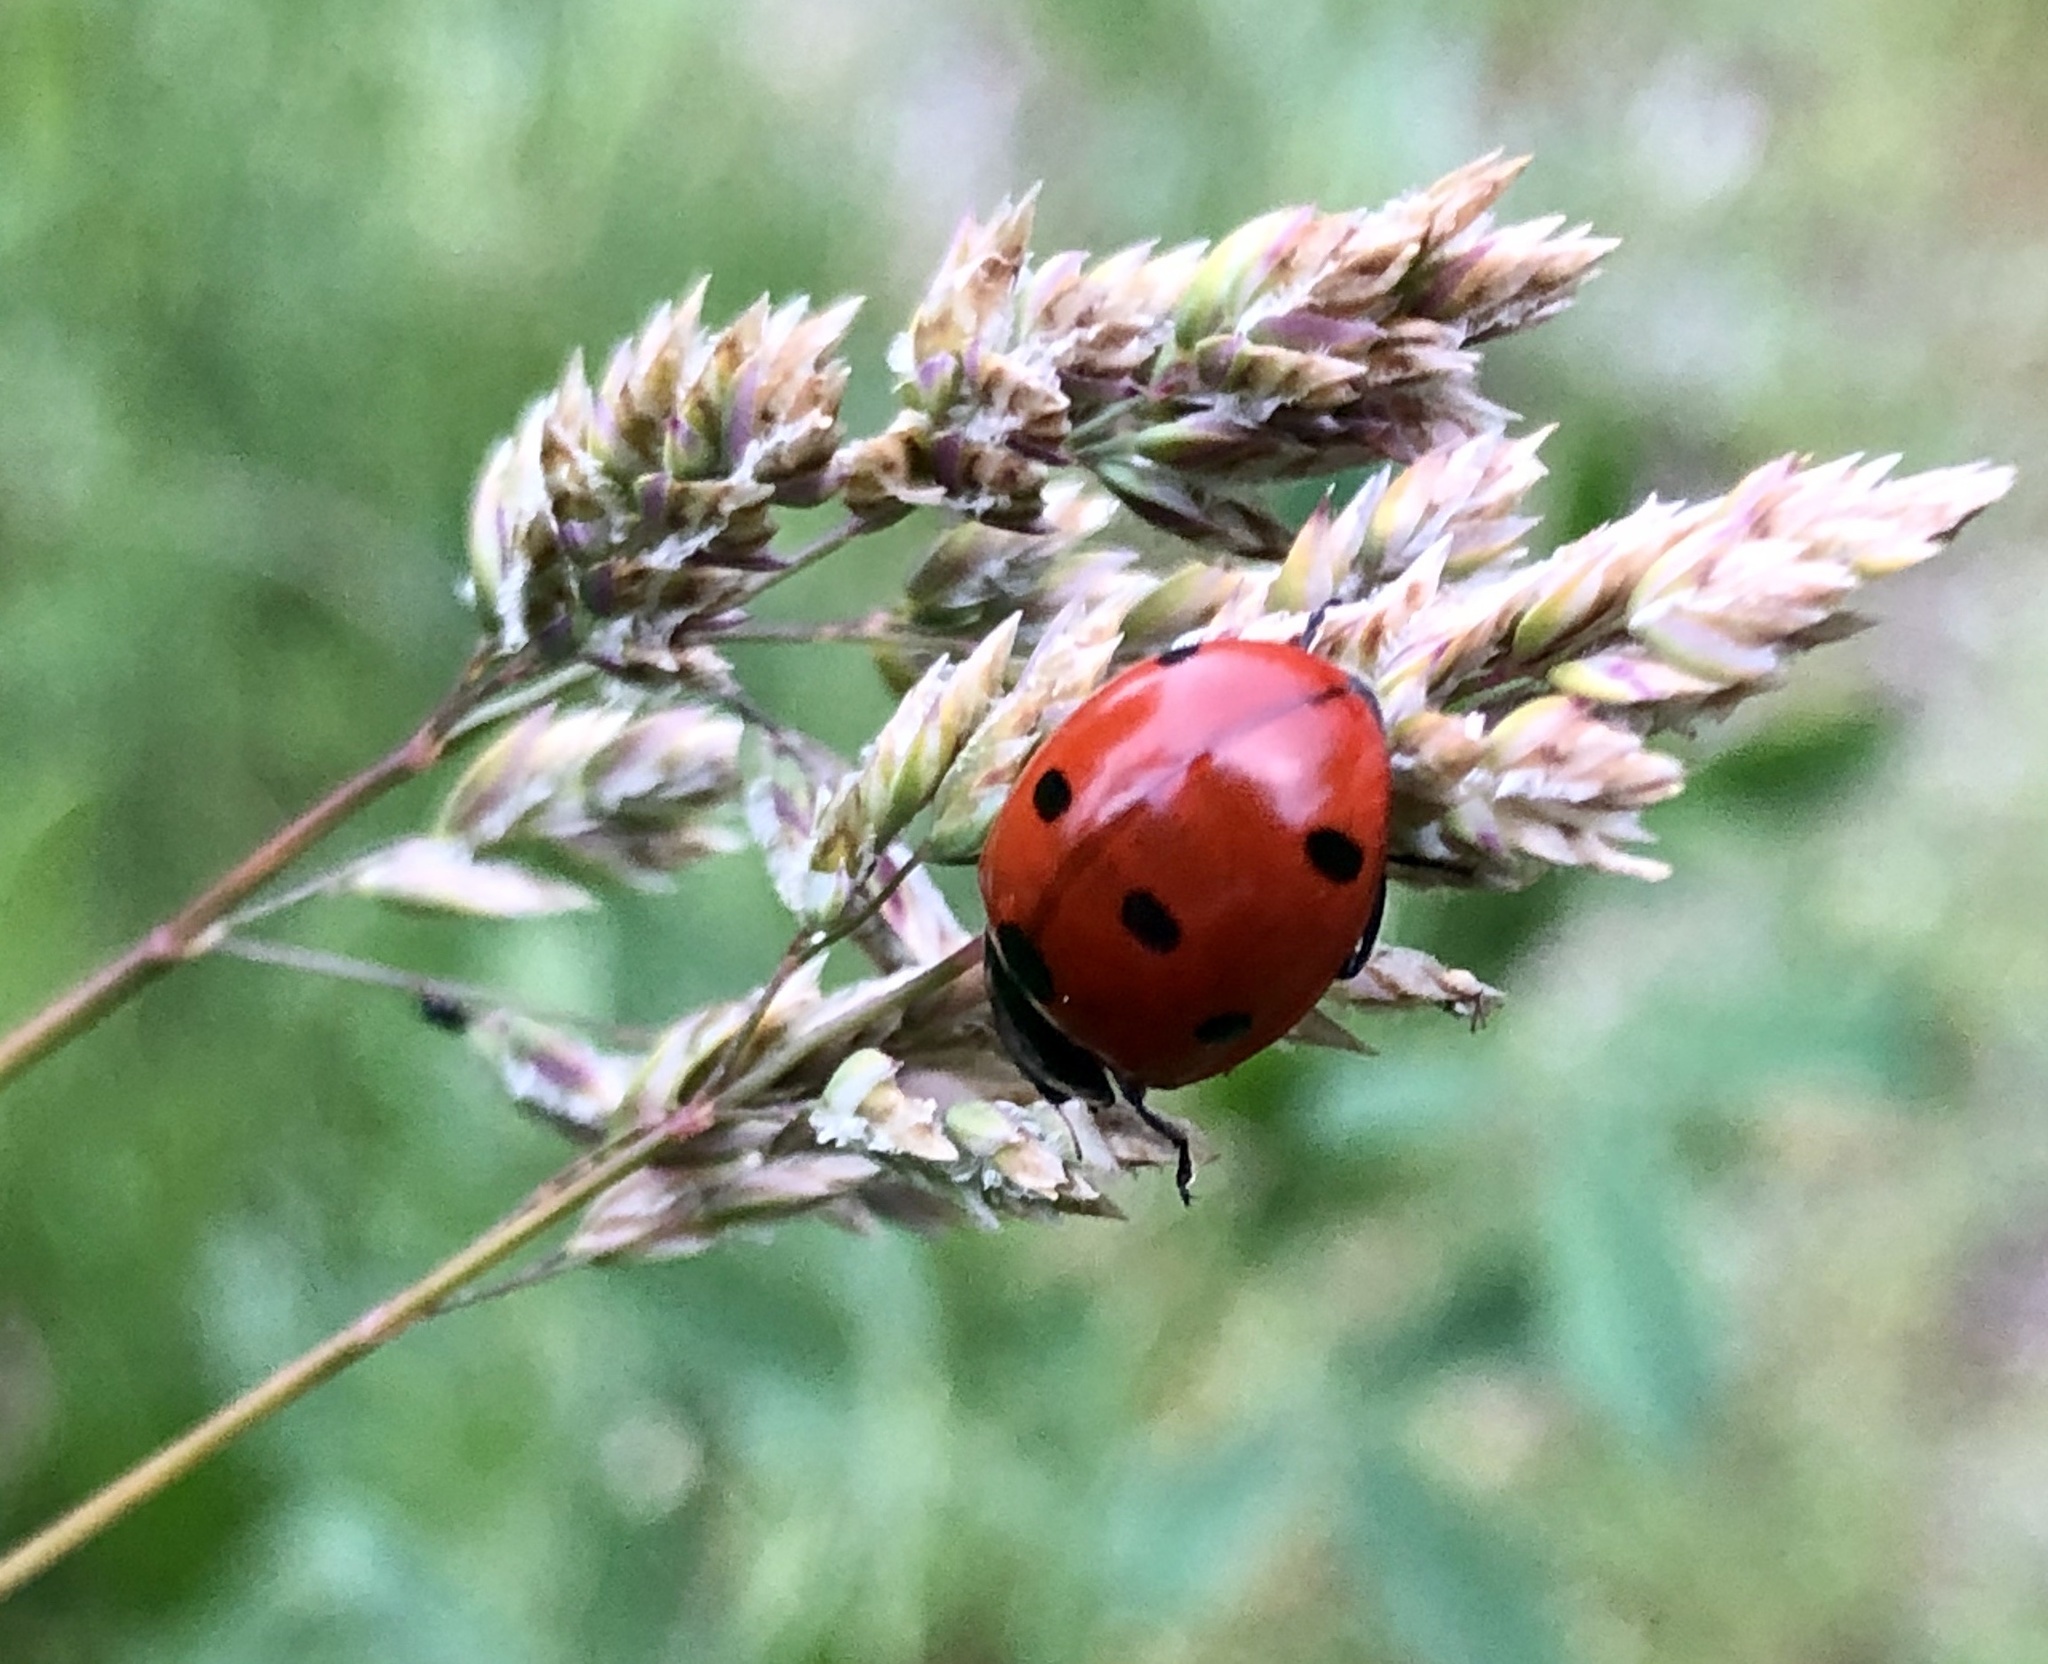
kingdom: Animalia
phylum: Arthropoda
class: Insecta
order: Coleoptera
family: Coccinellidae
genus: Coccinella
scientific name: Coccinella septempunctata
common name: Sevenspotted lady beetle
